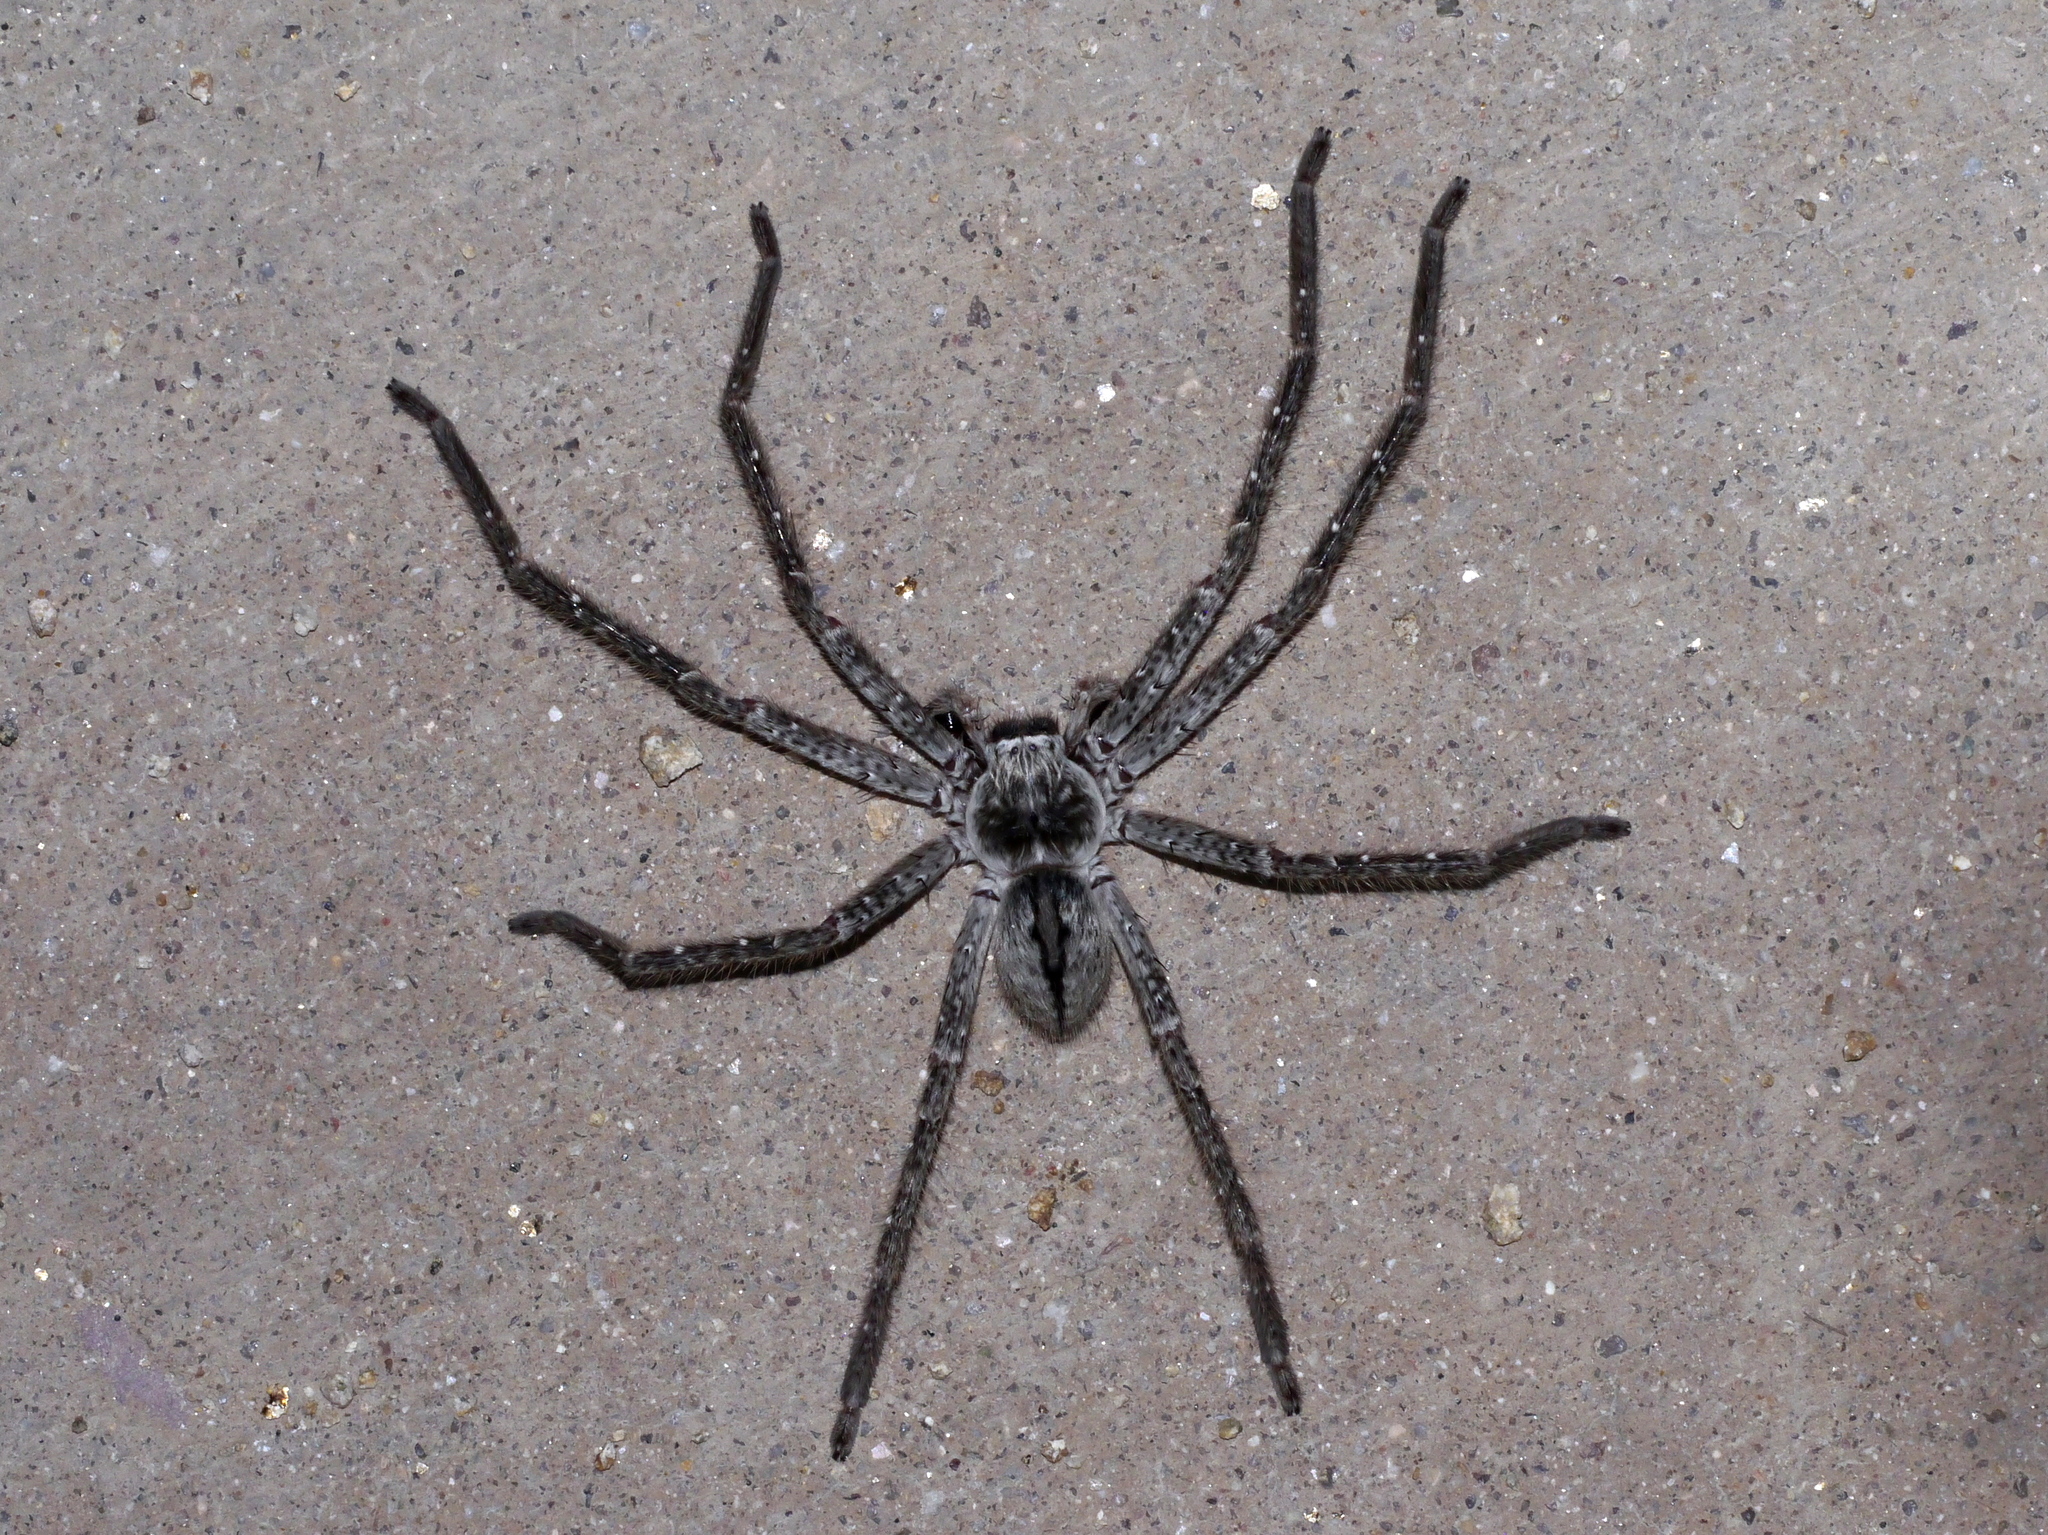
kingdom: Animalia
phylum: Arthropoda
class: Arachnida
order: Araneae
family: Sparassidae
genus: Olios
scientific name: Olios giganteus
